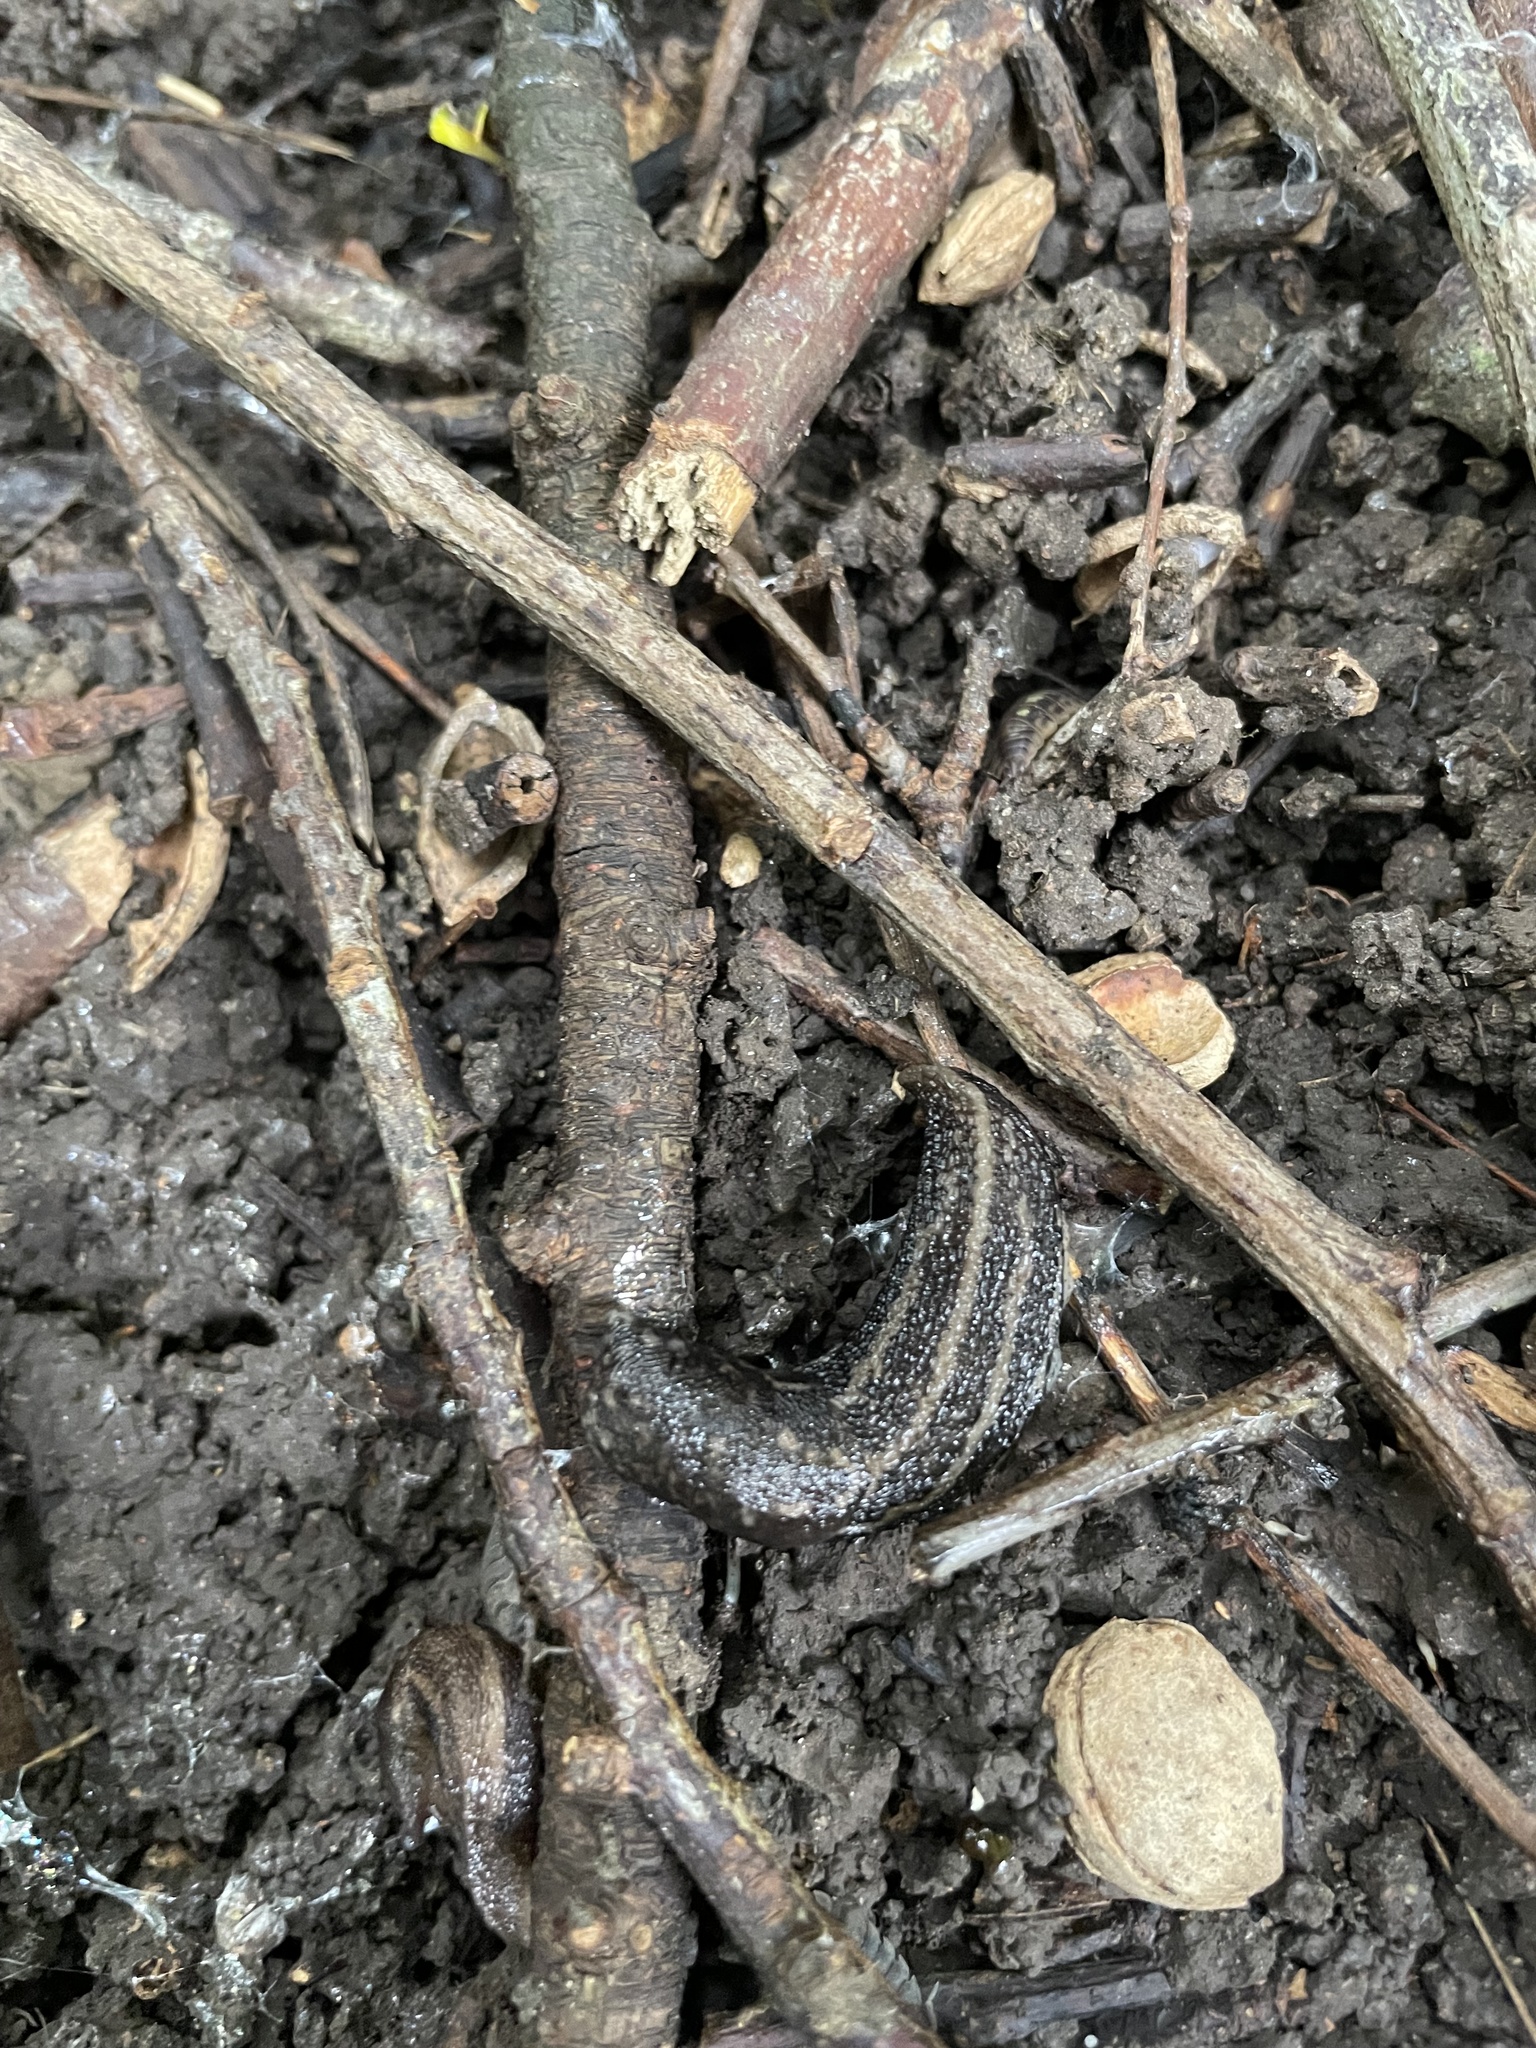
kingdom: Animalia
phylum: Mollusca
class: Gastropoda
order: Stylommatophora
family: Limacidae
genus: Limax
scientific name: Limax maximus
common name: Great grey slug
